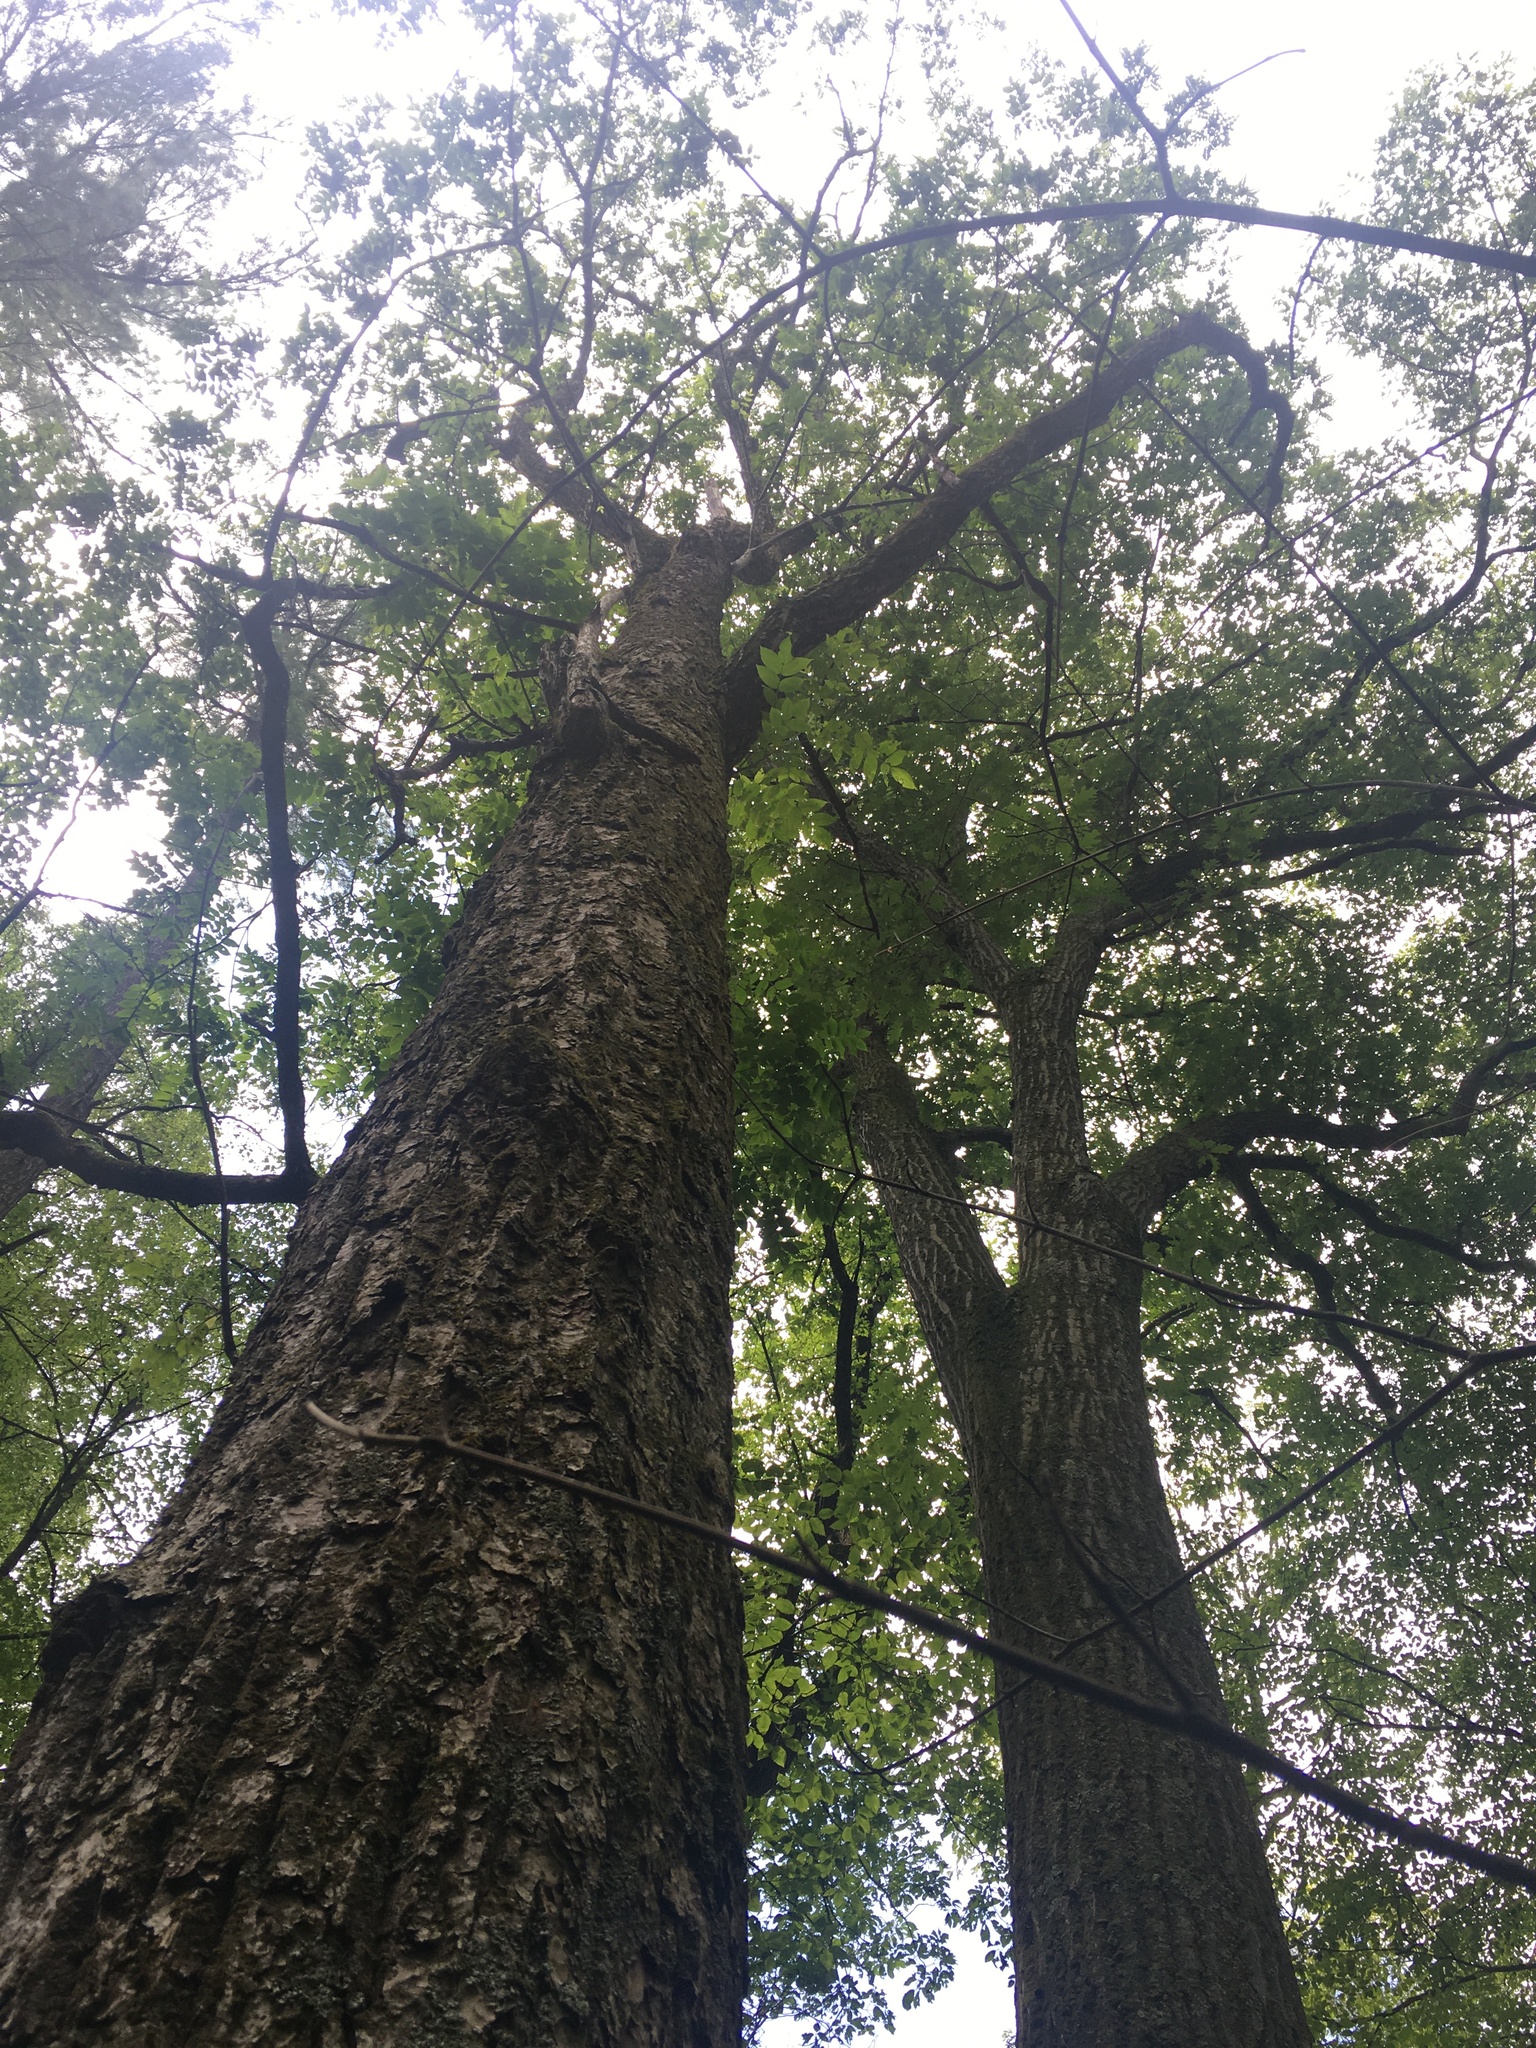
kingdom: Plantae
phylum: Tracheophyta
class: Magnoliopsida
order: Fagales
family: Juglandaceae
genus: Juglans
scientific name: Juglans cinerea
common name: Butternut
